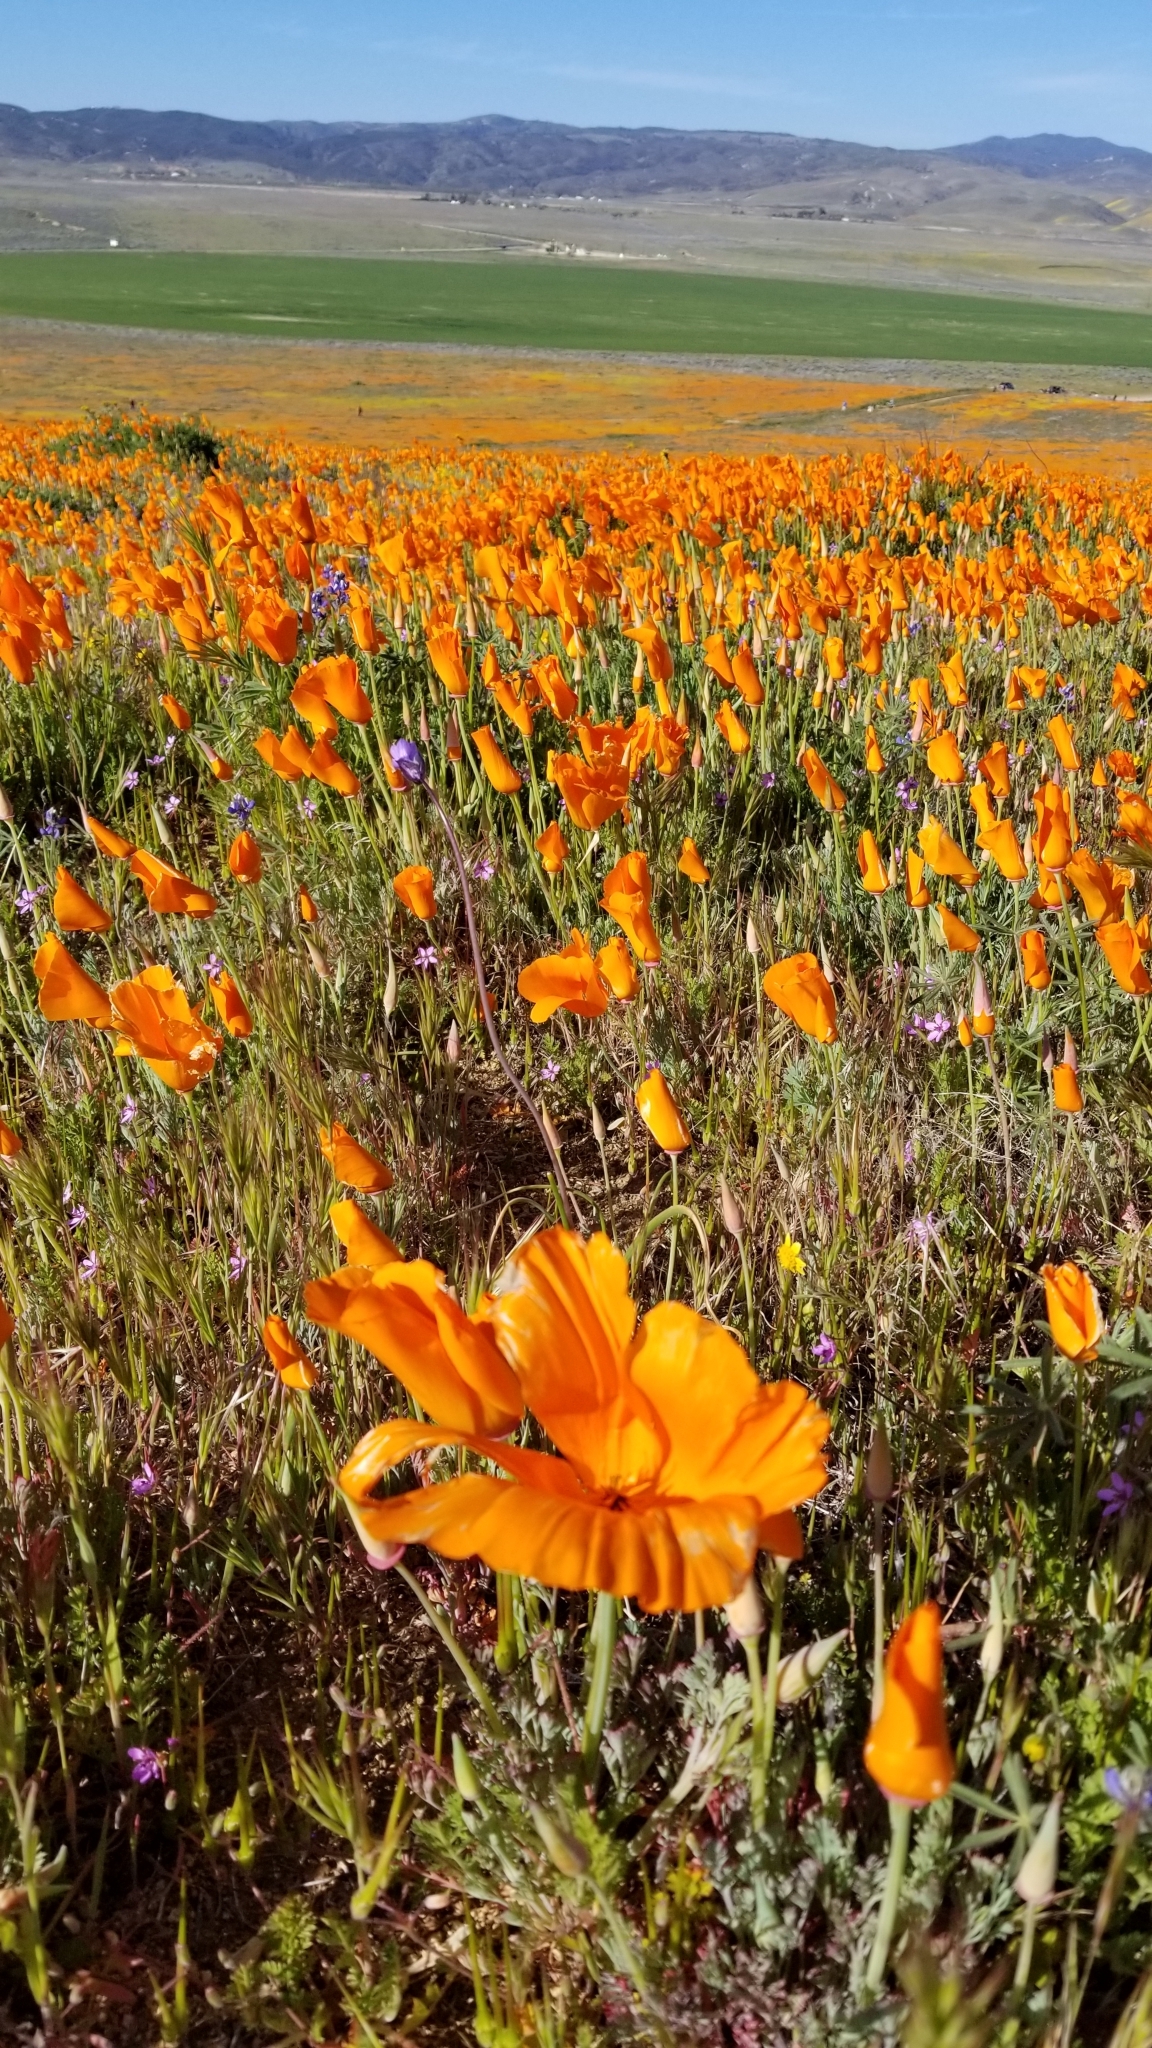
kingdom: Plantae
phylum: Tracheophyta
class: Magnoliopsida
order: Ranunculales
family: Papaveraceae
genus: Eschscholzia
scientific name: Eschscholzia californica
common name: California poppy
